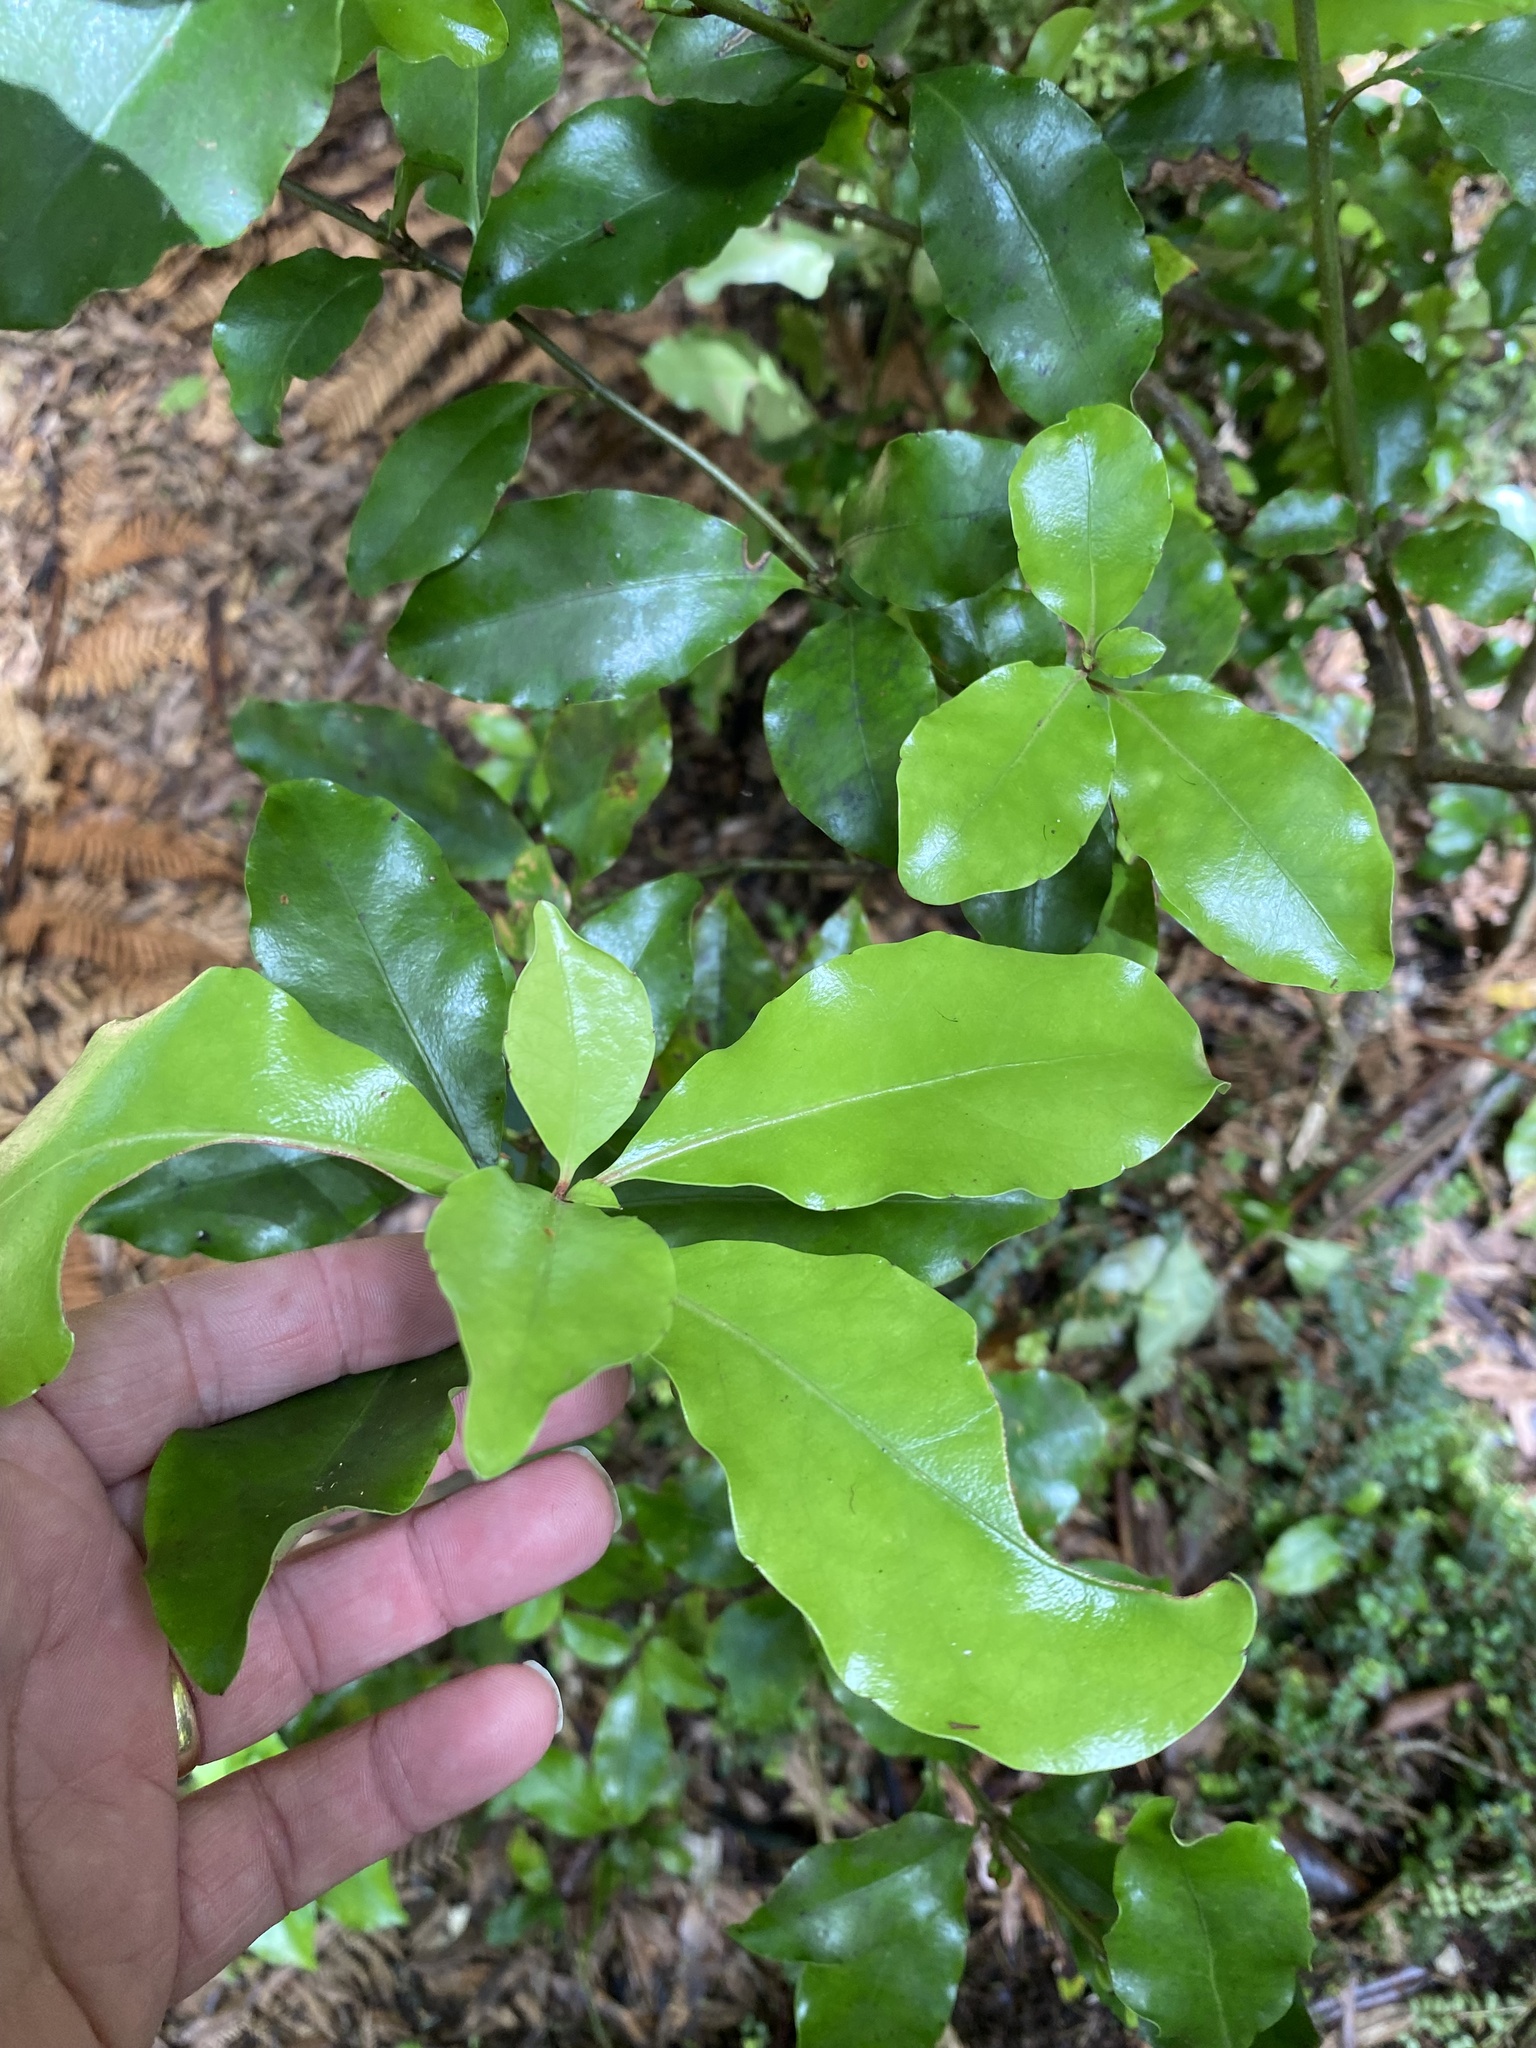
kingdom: Plantae
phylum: Tracheophyta
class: Magnoliopsida
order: Asterales
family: Alseuosmiaceae
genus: Alseuosmia
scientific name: Alseuosmia macrophylla
